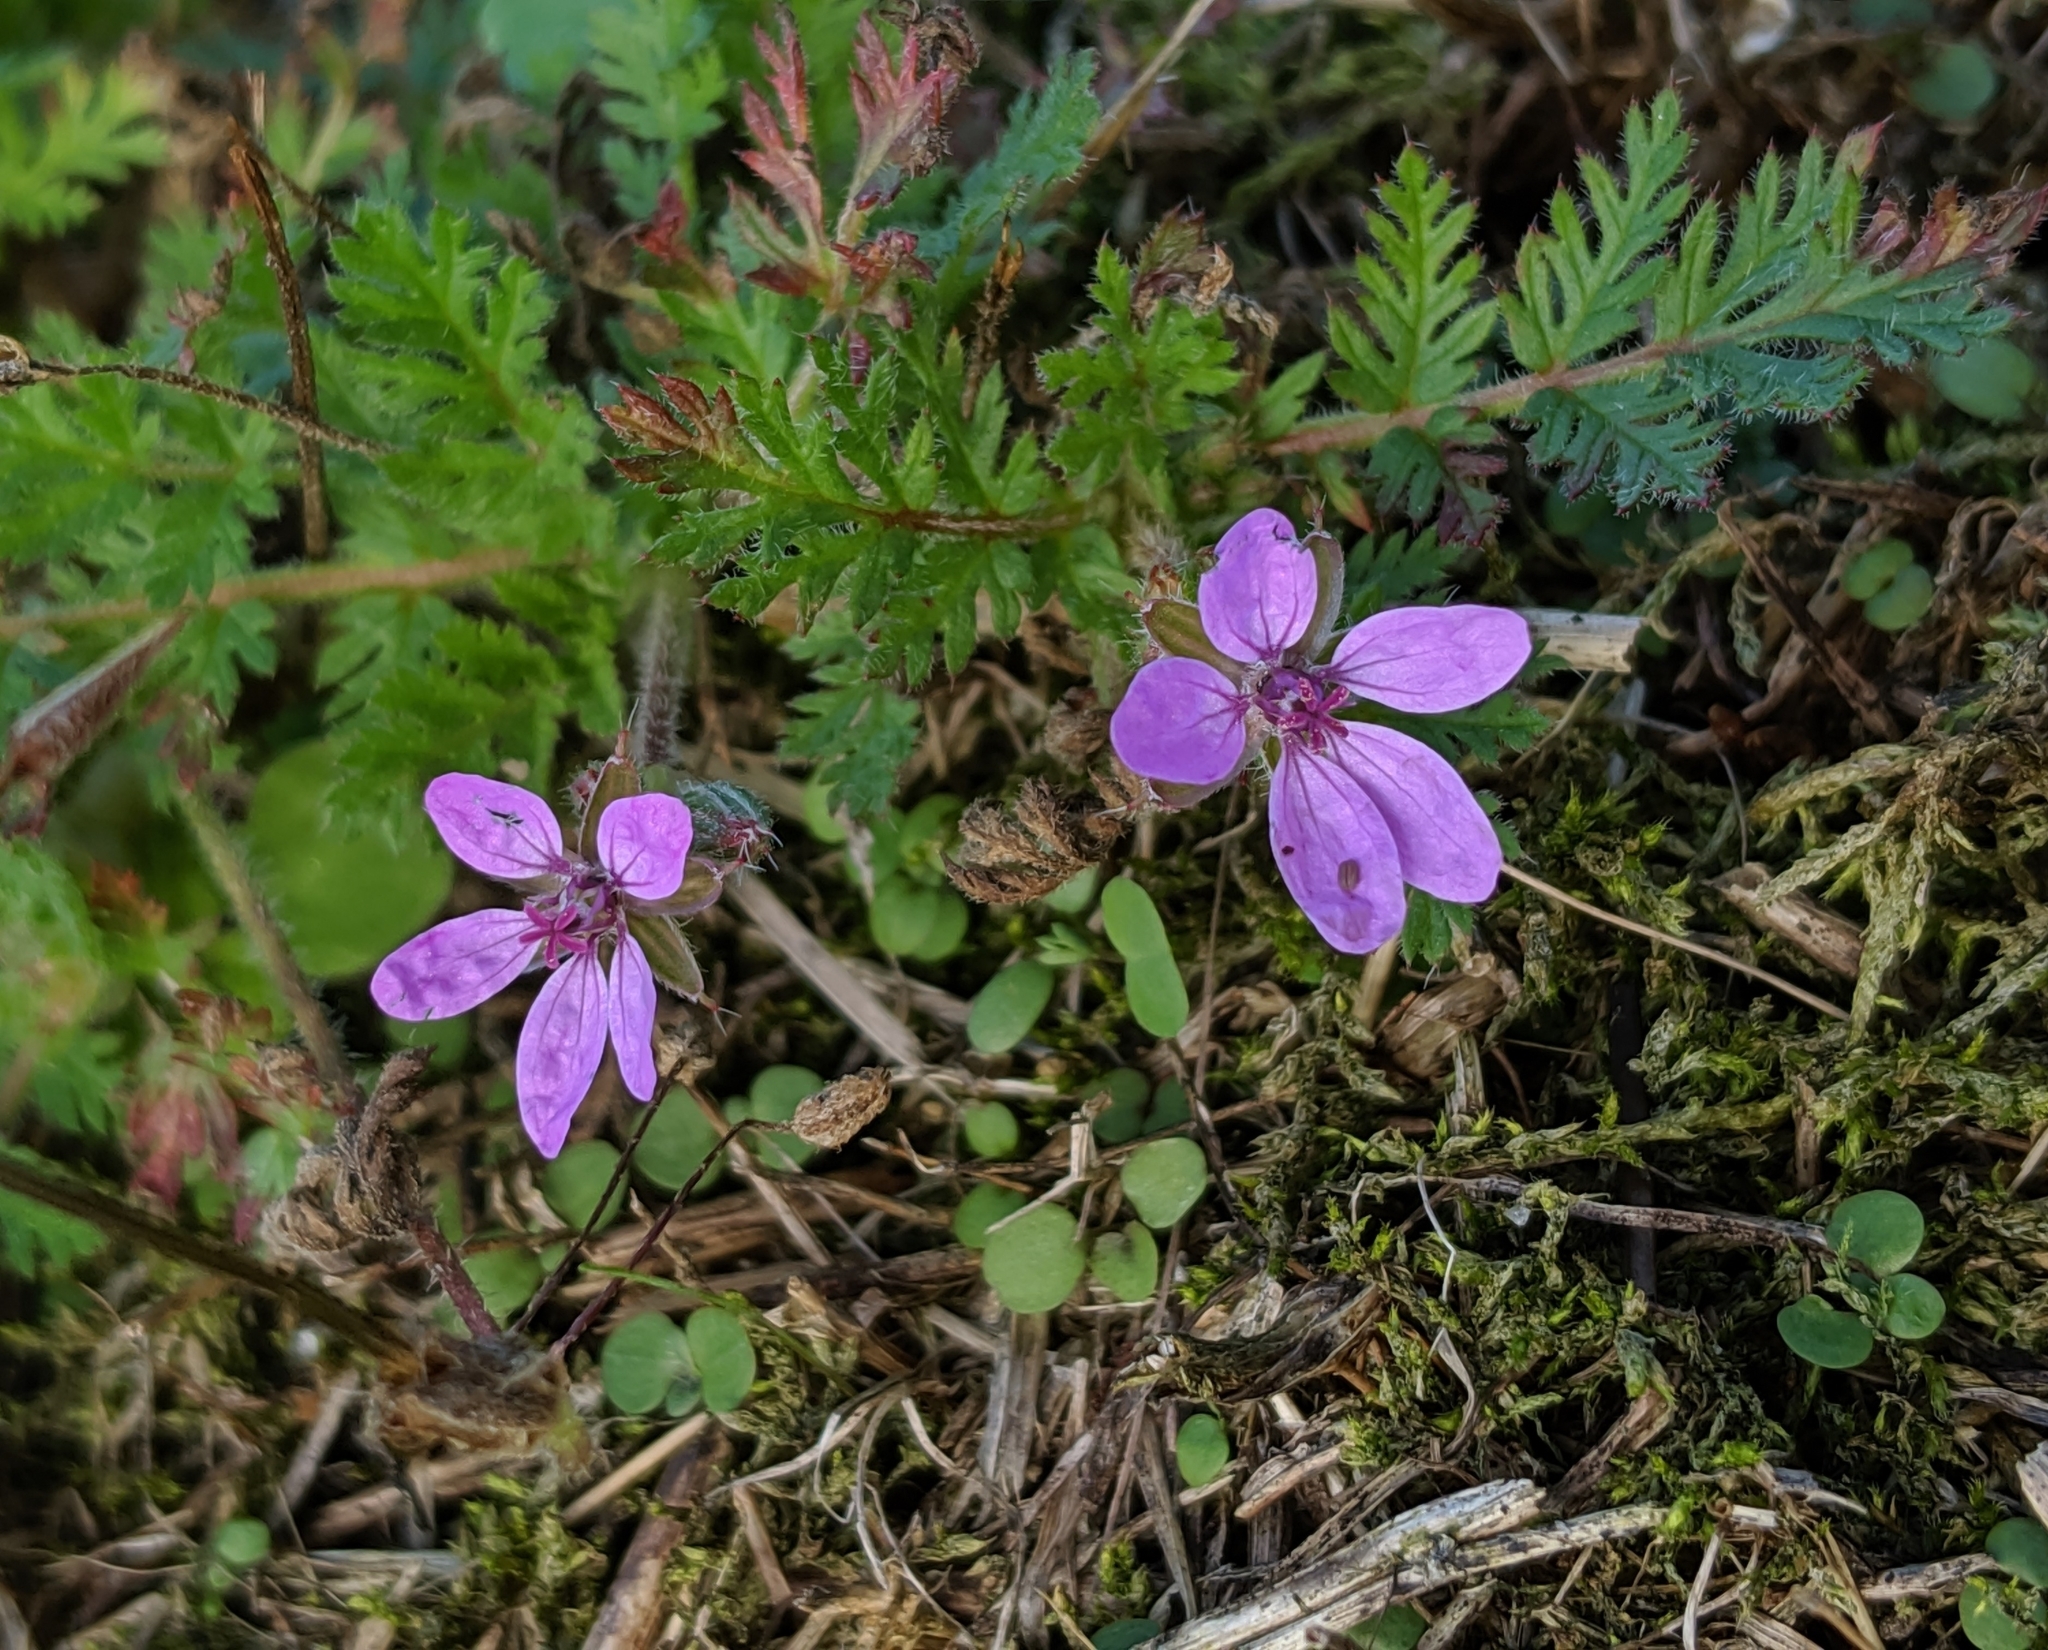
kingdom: Plantae
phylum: Tracheophyta
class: Magnoliopsida
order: Geraniales
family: Geraniaceae
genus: Erodium
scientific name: Erodium cicutarium
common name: Common stork's-bill
